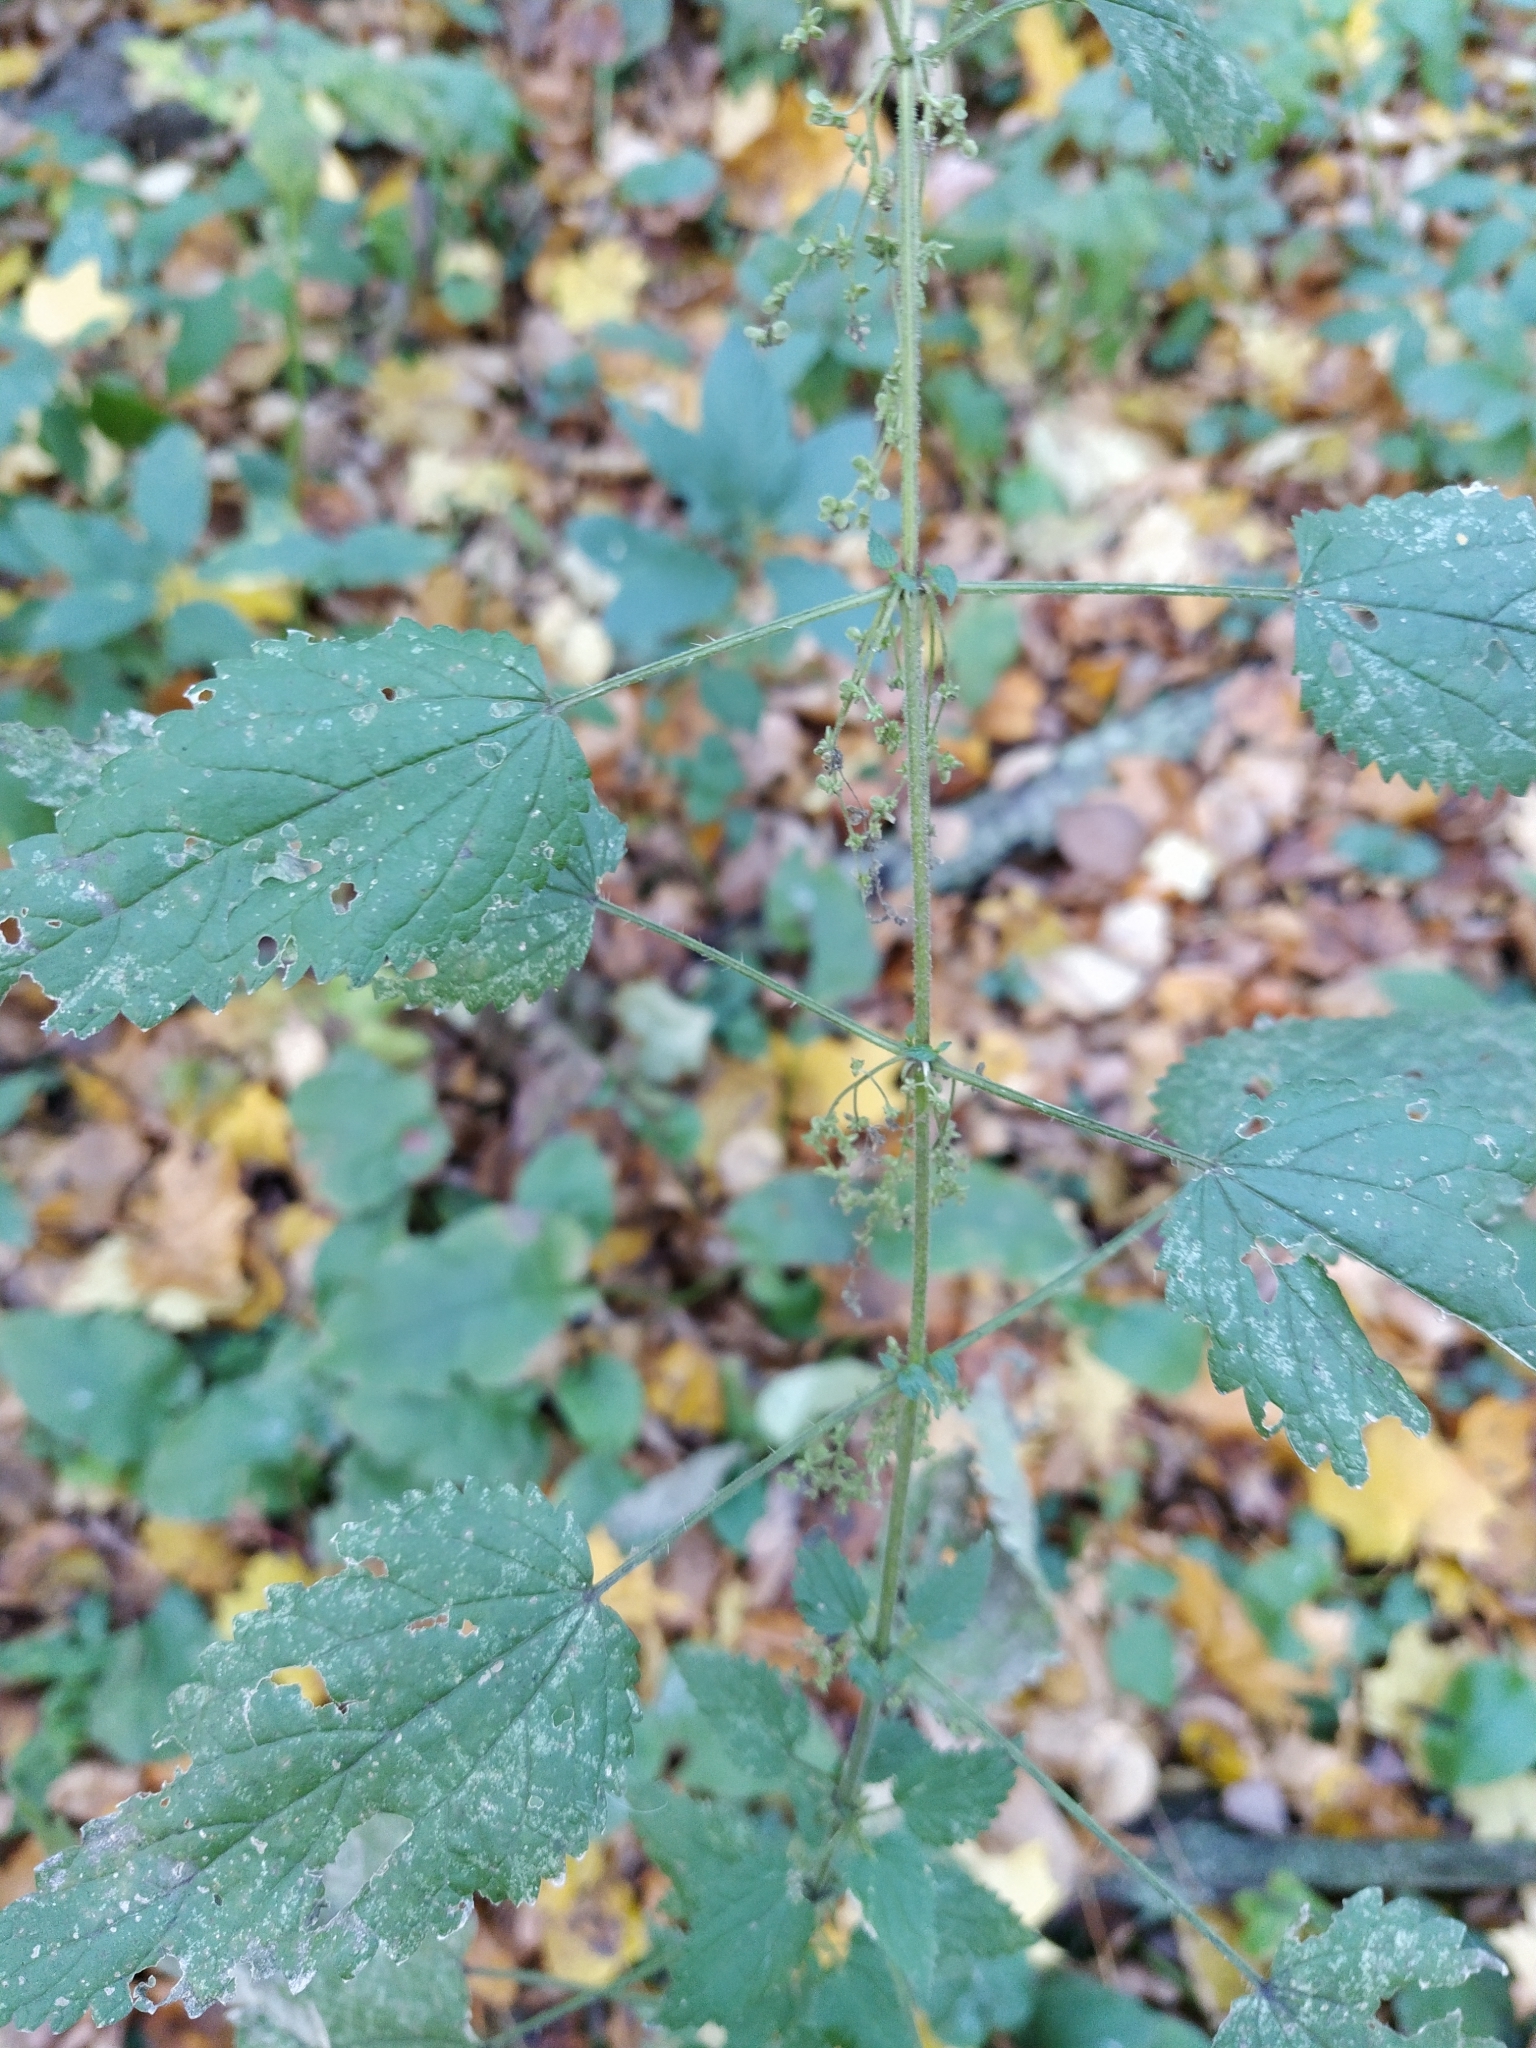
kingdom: Plantae
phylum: Tracheophyta
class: Magnoliopsida
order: Rosales
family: Urticaceae
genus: Urtica
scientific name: Urtica dioica
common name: Common nettle
